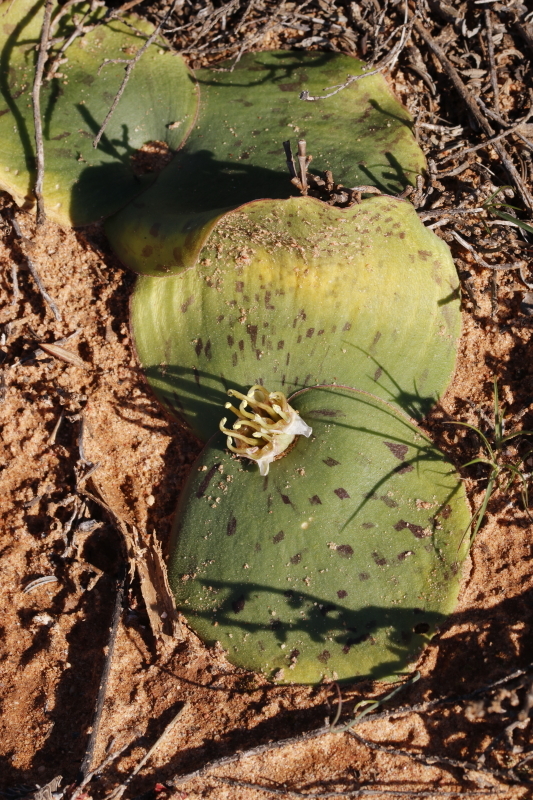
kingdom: Plantae
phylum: Tracheophyta
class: Liliopsida
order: Asparagales
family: Asparagaceae
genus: Massonia
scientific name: Massonia depressa
